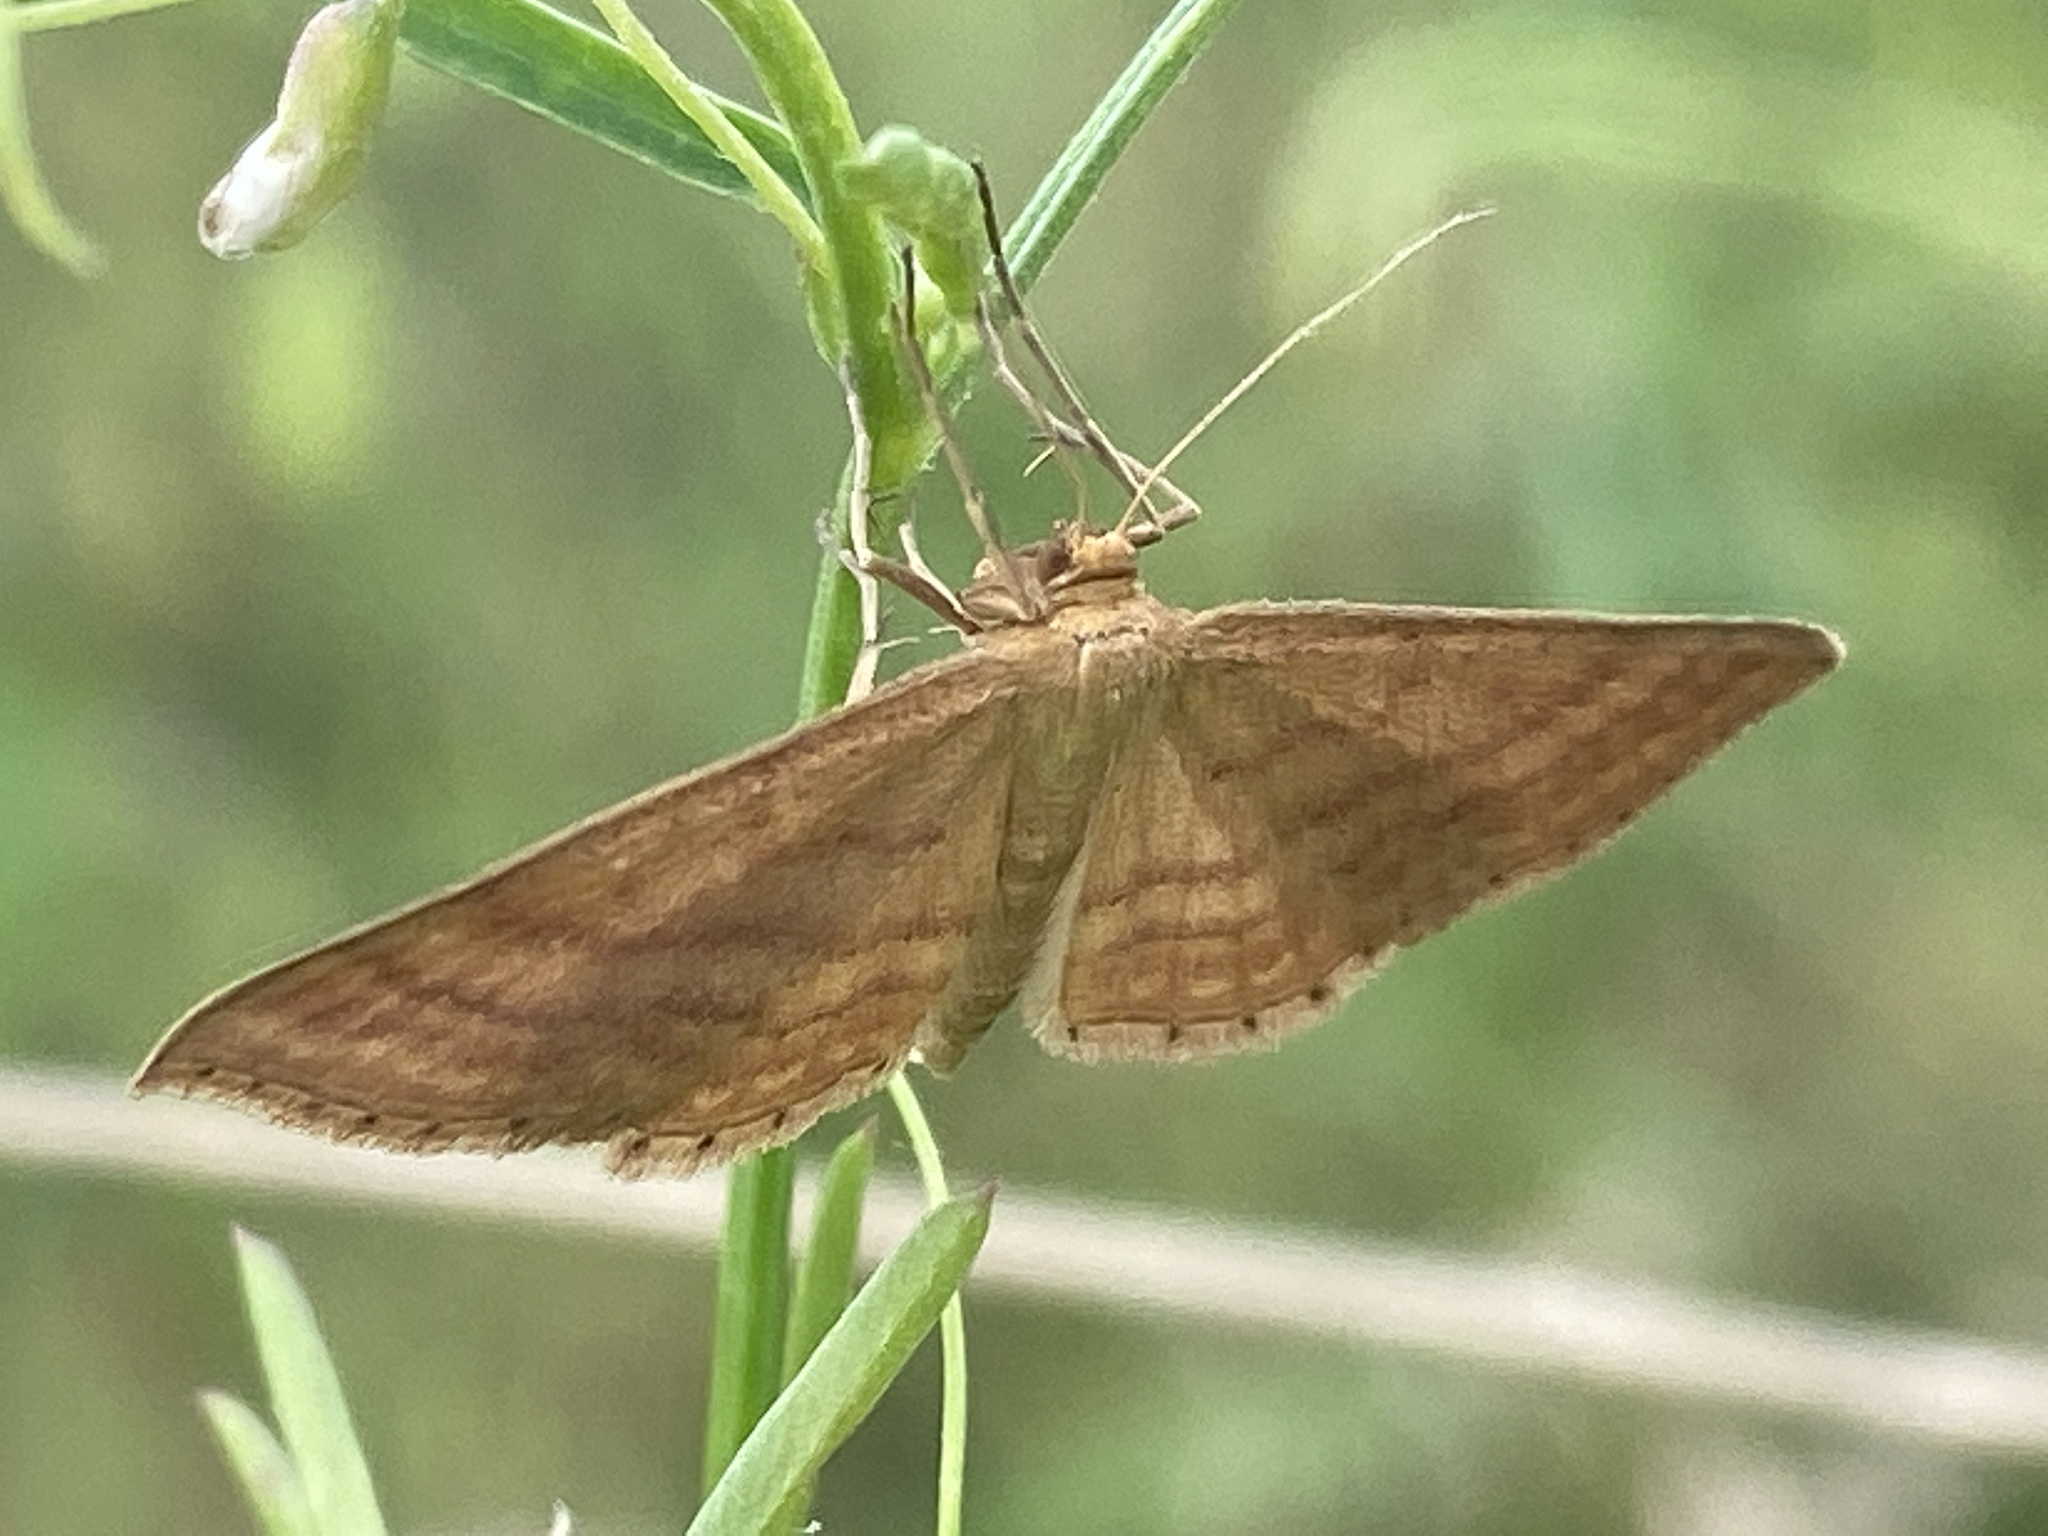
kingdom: Animalia
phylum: Arthropoda
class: Insecta
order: Lepidoptera
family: Geometridae
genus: Idaea
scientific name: Idaea ochrata
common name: Bright wave
